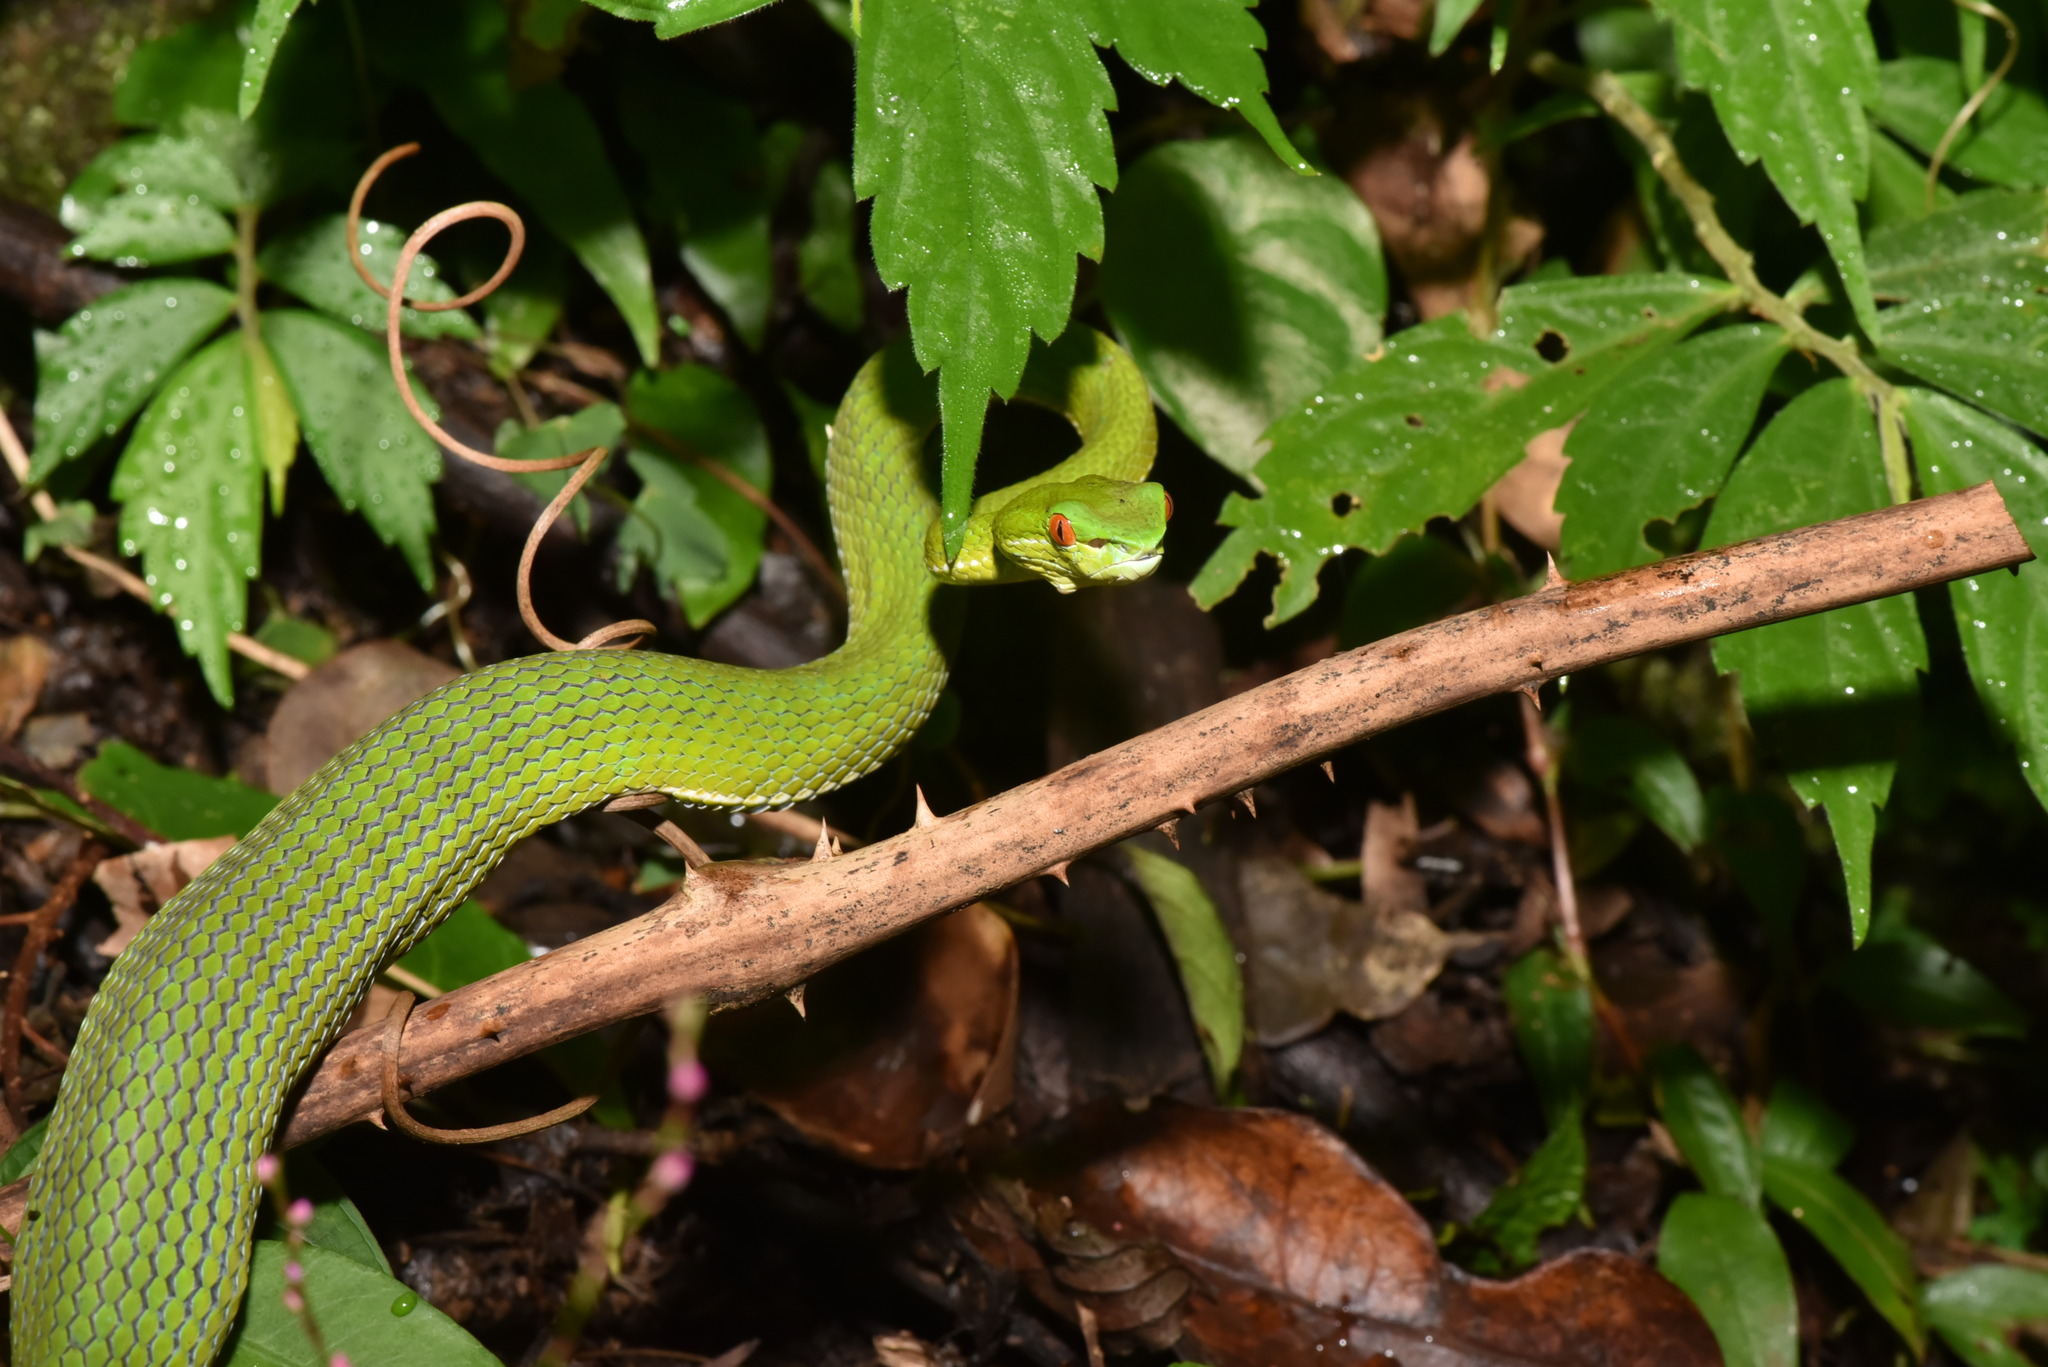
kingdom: Animalia
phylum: Chordata
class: Squamata
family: Viperidae
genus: Trimeresurus
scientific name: Trimeresurus stejnegeri
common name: Chen’s bamboo pit viper
